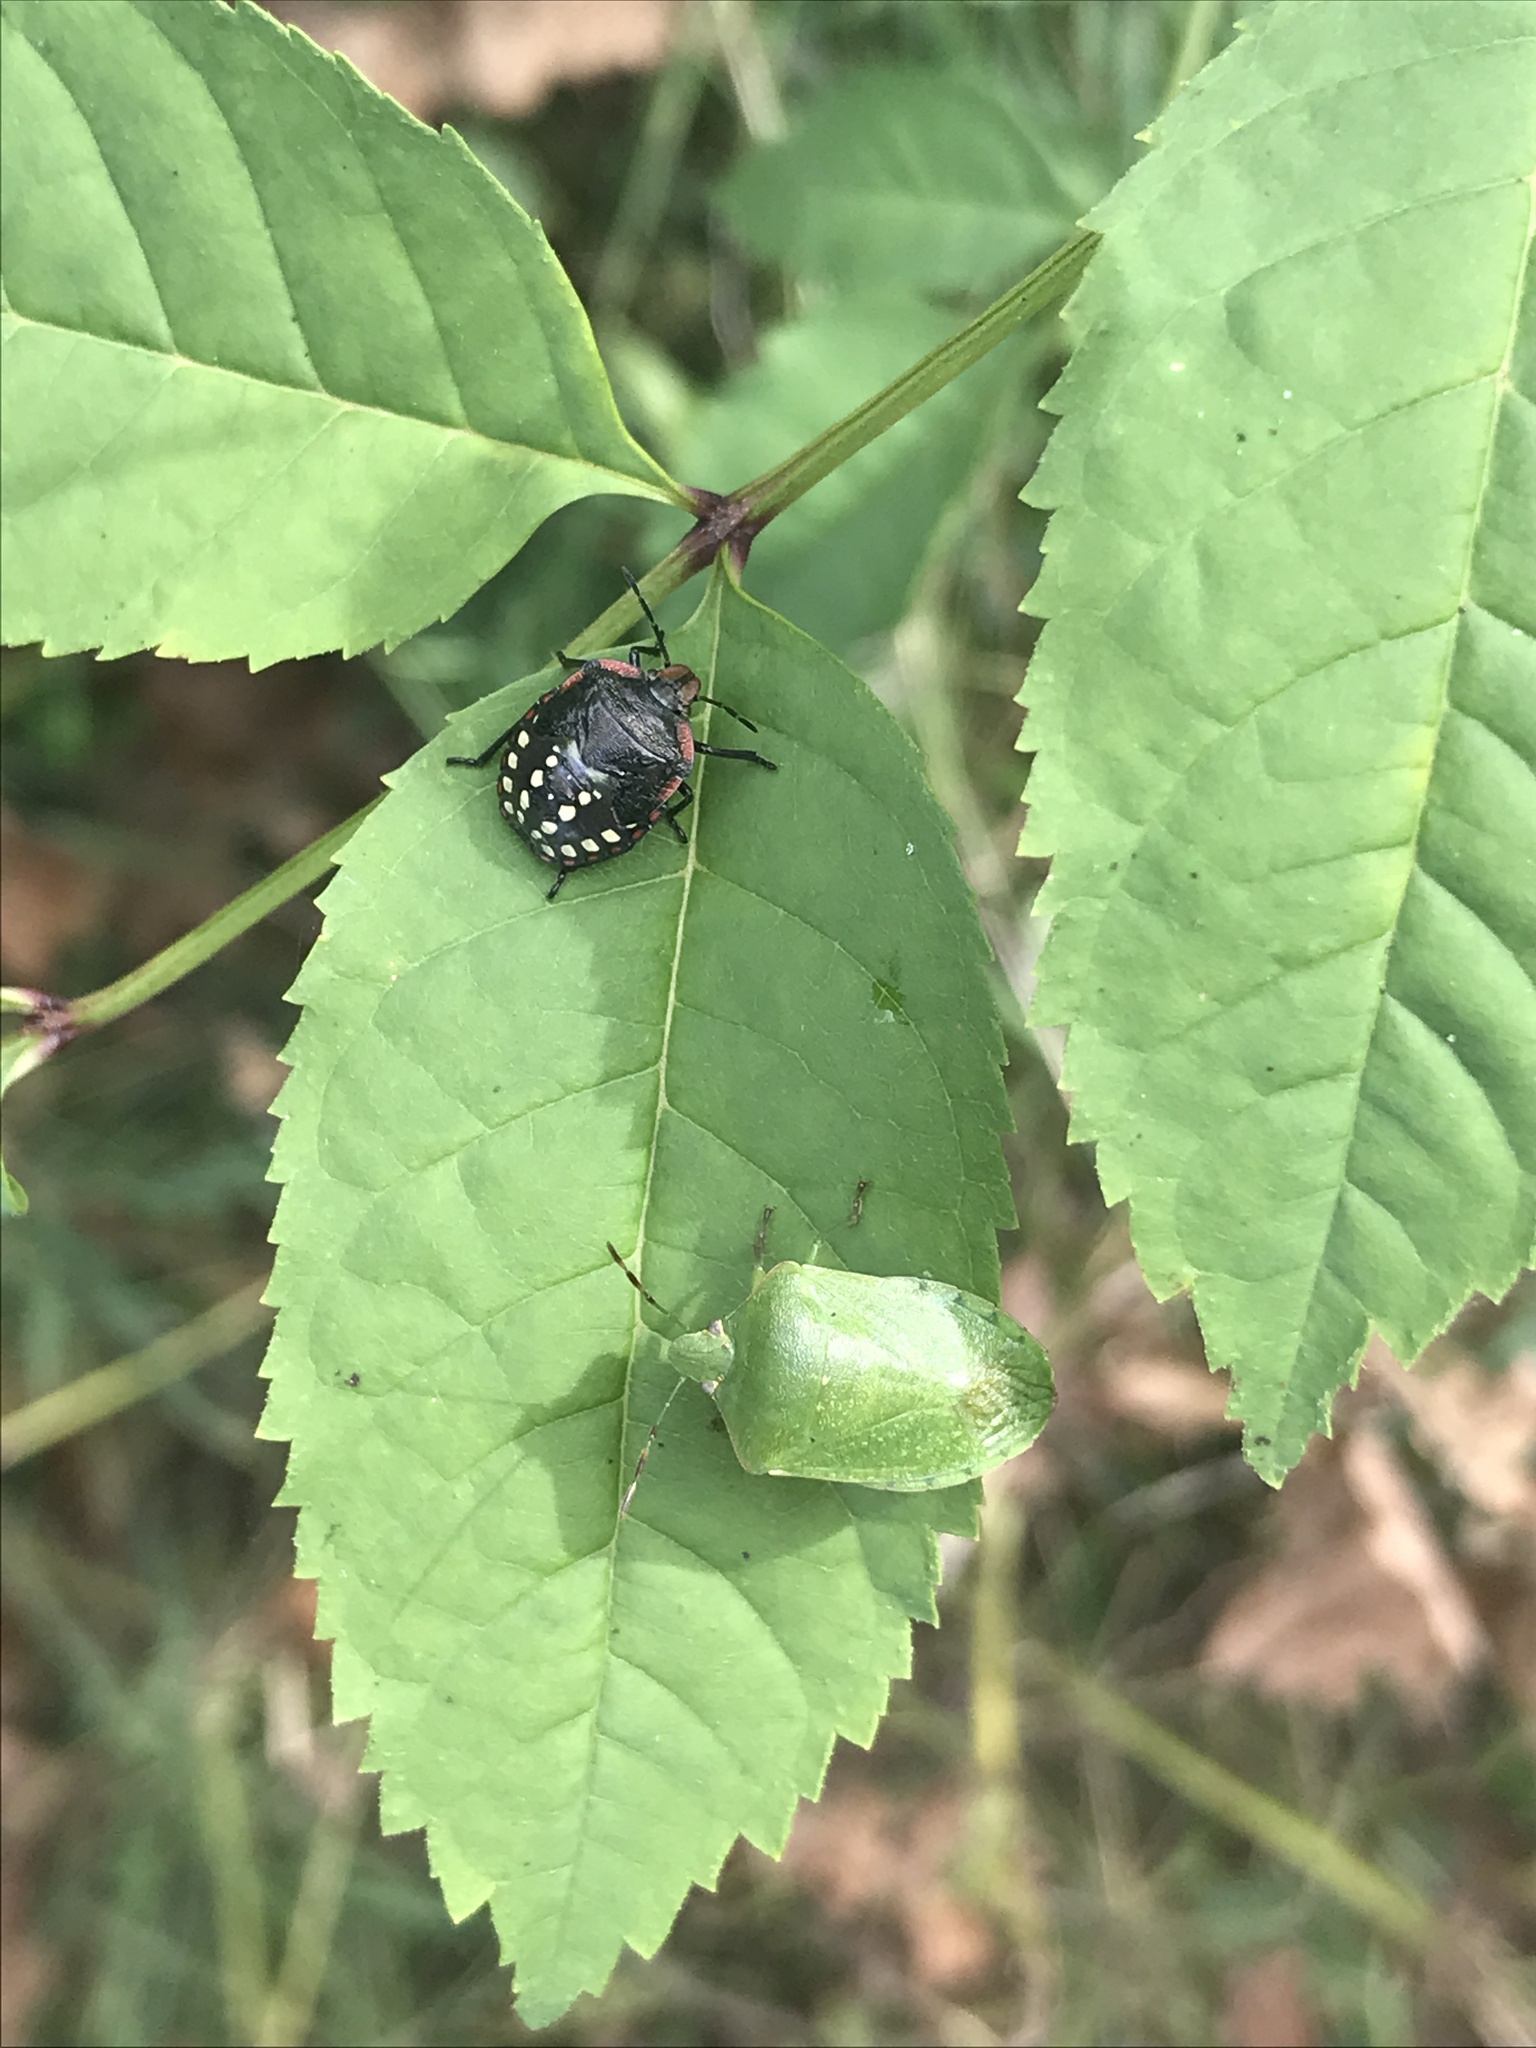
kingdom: Animalia
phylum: Arthropoda
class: Insecta
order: Hemiptera
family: Pentatomidae
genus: Nezara
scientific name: Nezara viridula
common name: Southern green stink bug
